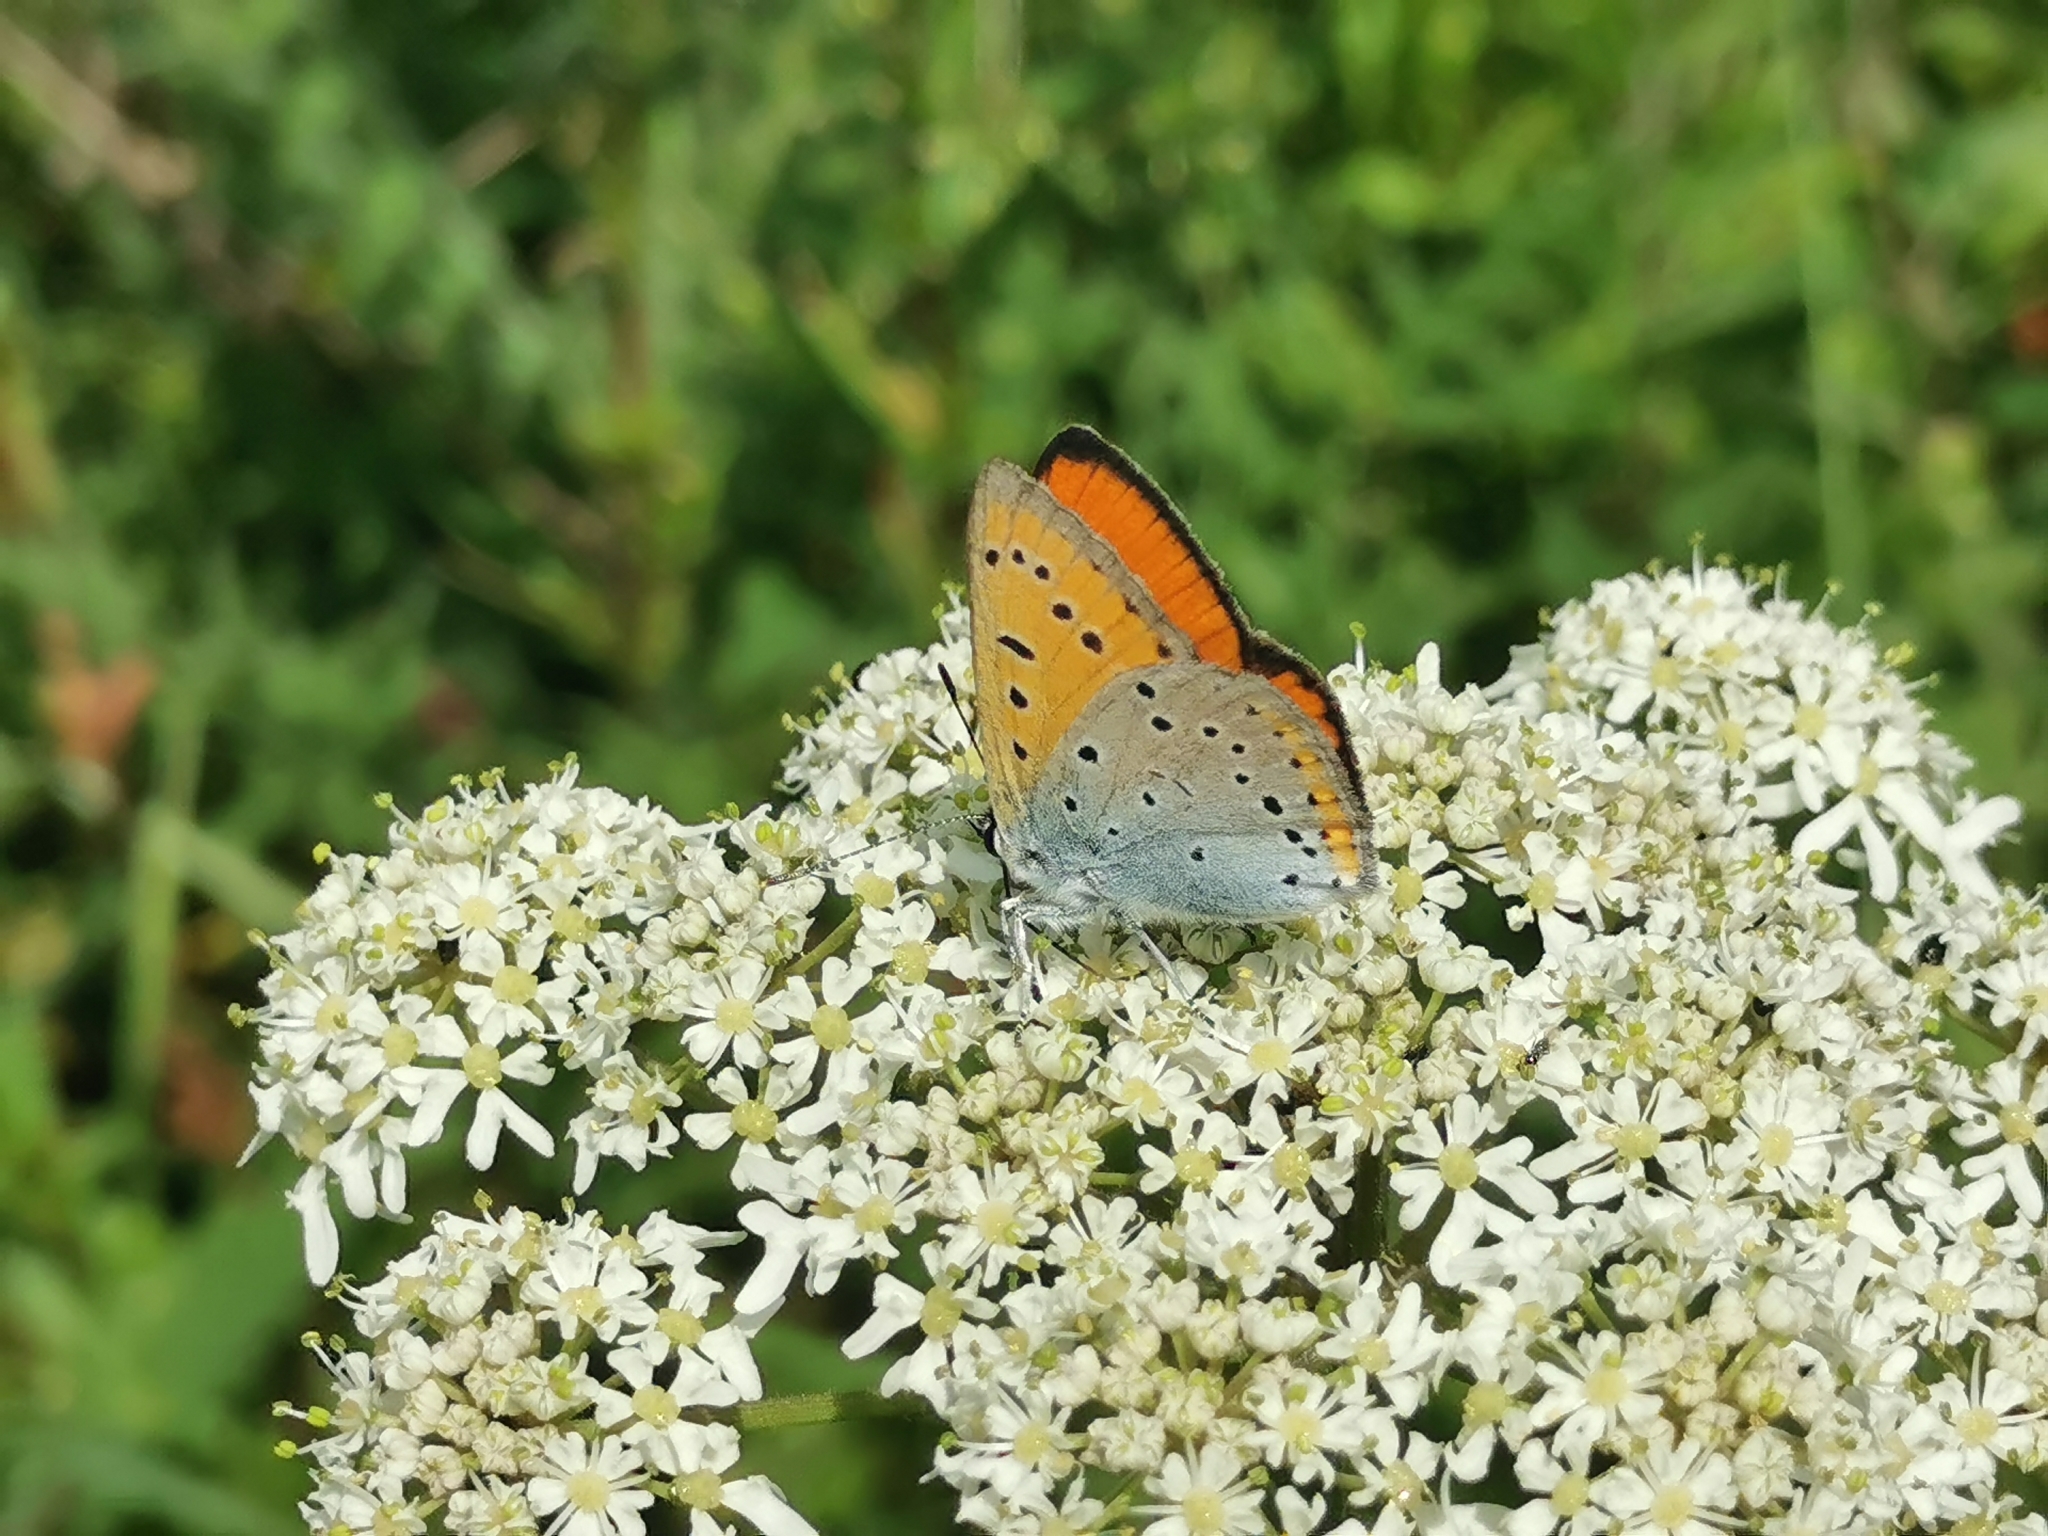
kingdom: Animalia
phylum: Arthropoda
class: Insecta
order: Lepidoptera
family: Lycaenidae
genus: Lycaena
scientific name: Lycaena dispar
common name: Large copper
